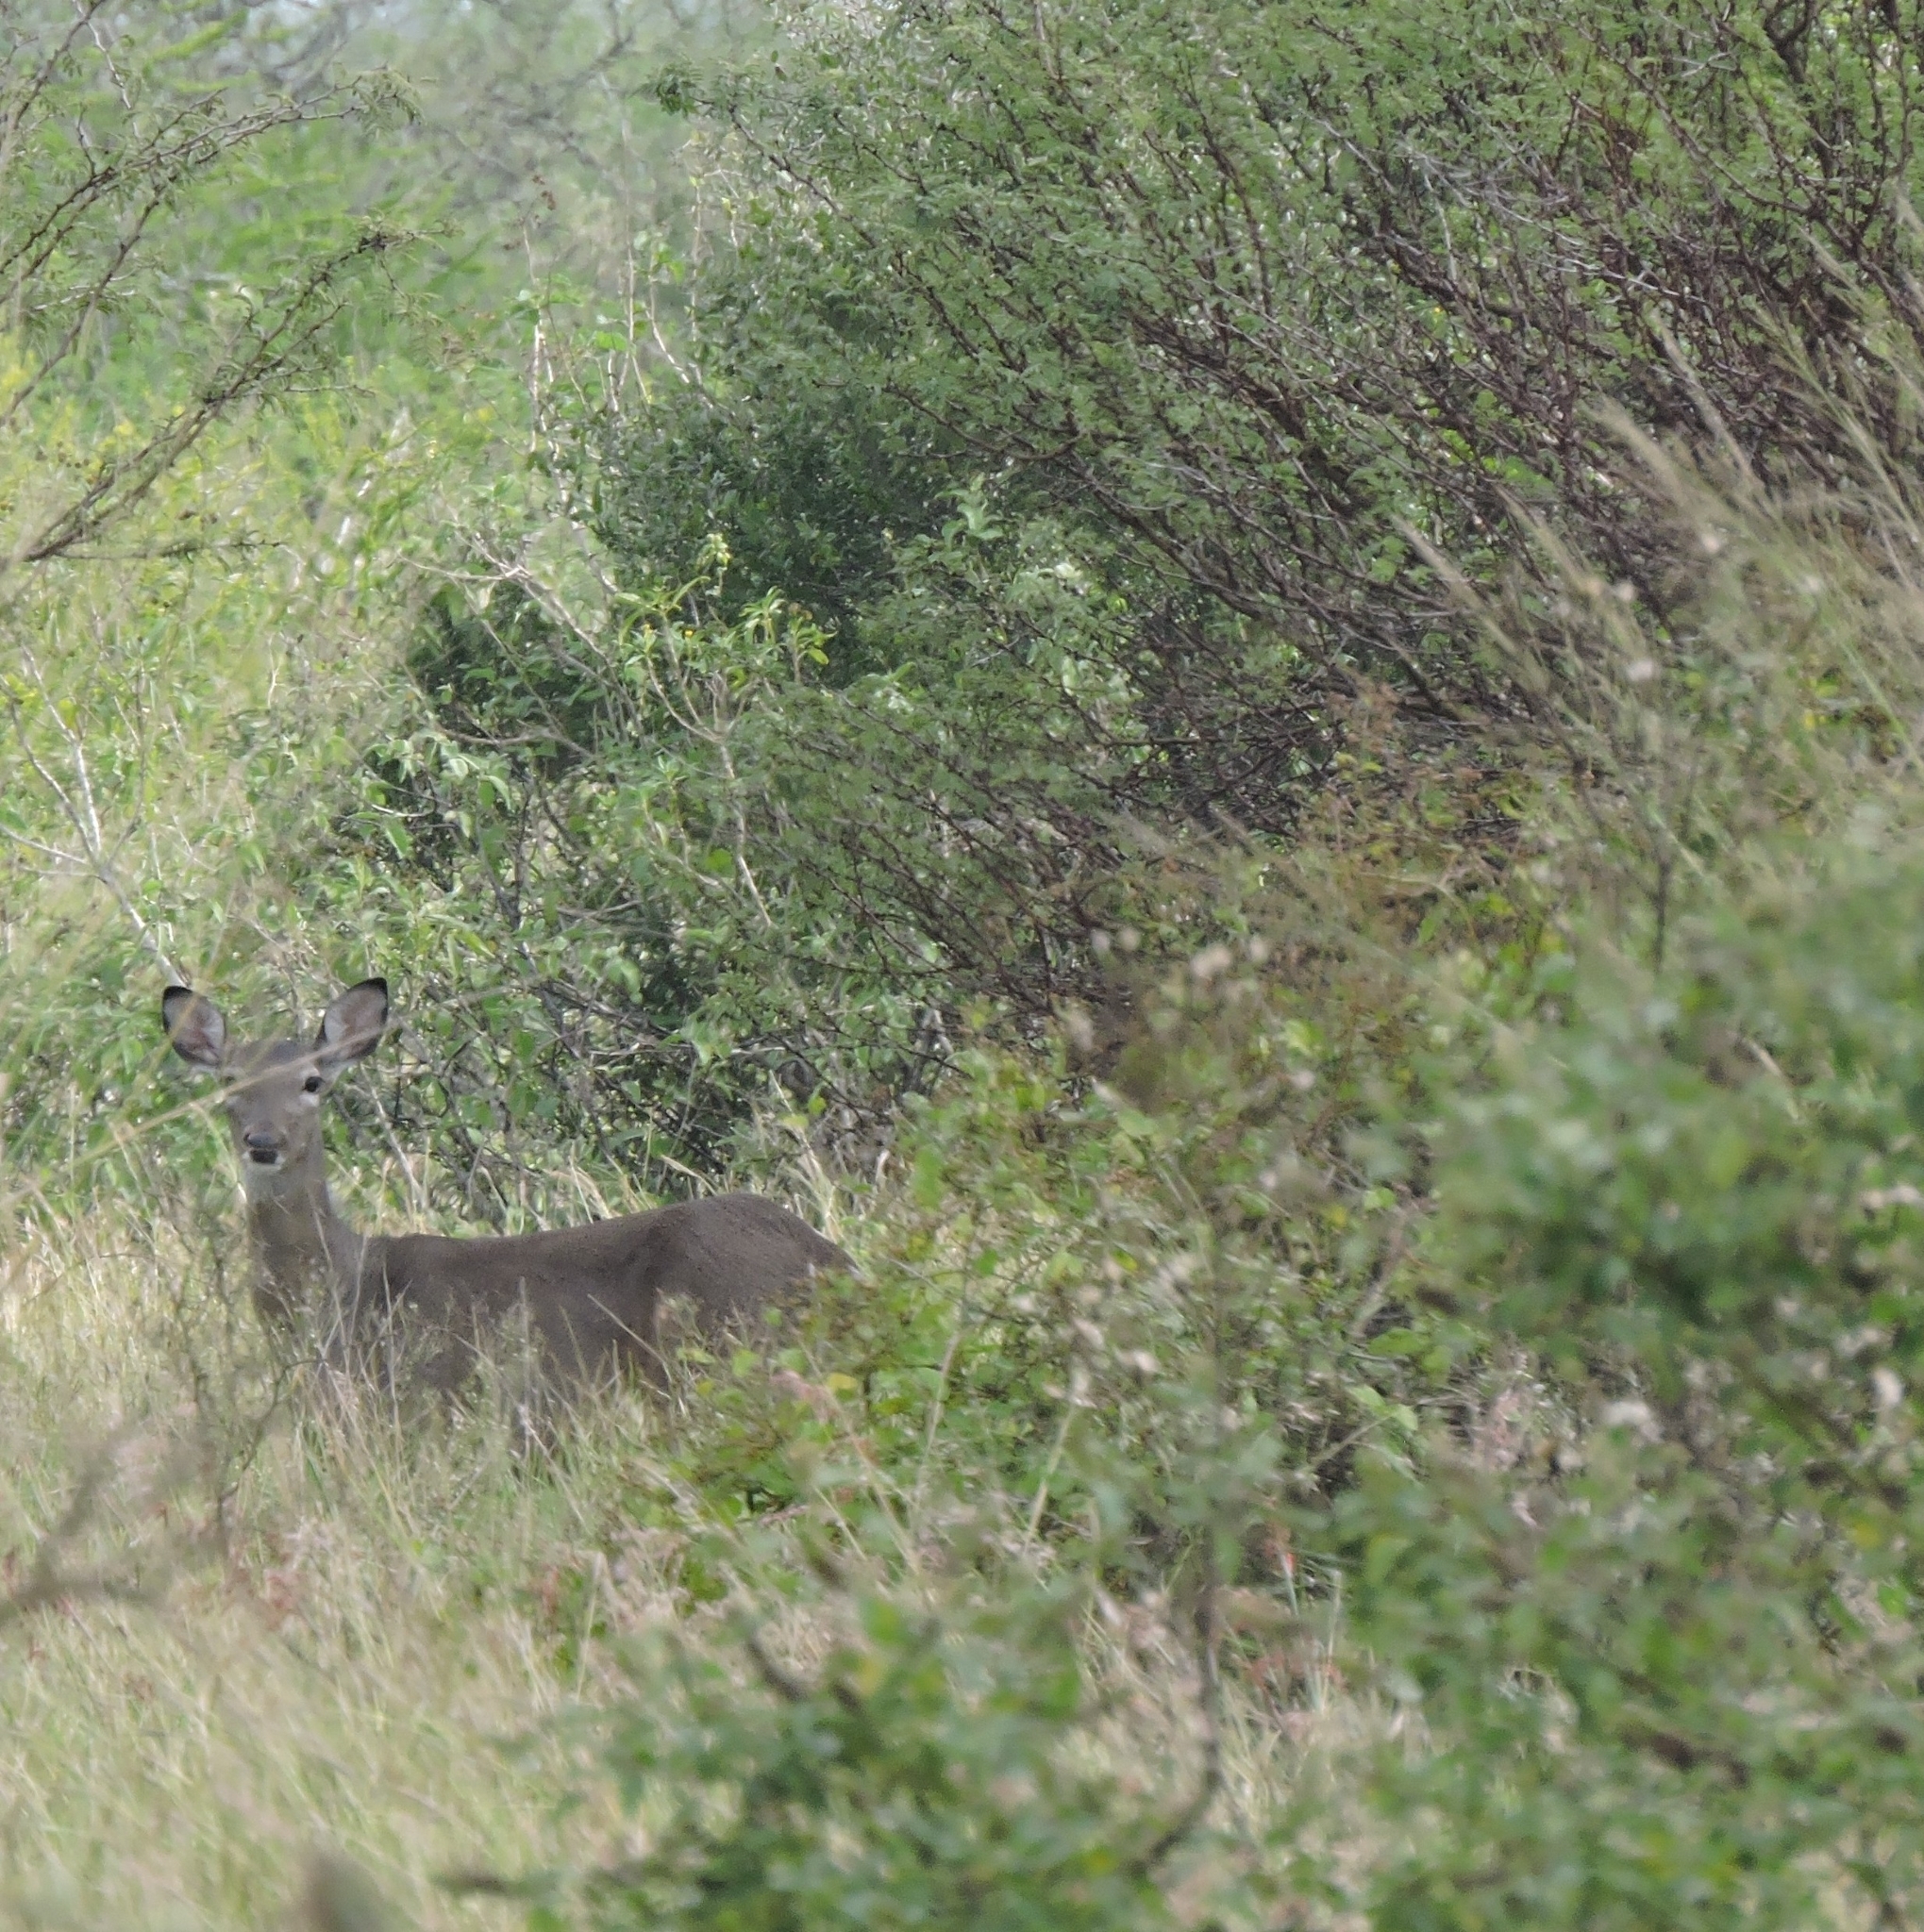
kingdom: Animalia
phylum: Chordata
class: Mammalia
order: Artiodactyla
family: Cervidae
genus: Odocoileus
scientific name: Odocoileus virginianus
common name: White-tailed deer
